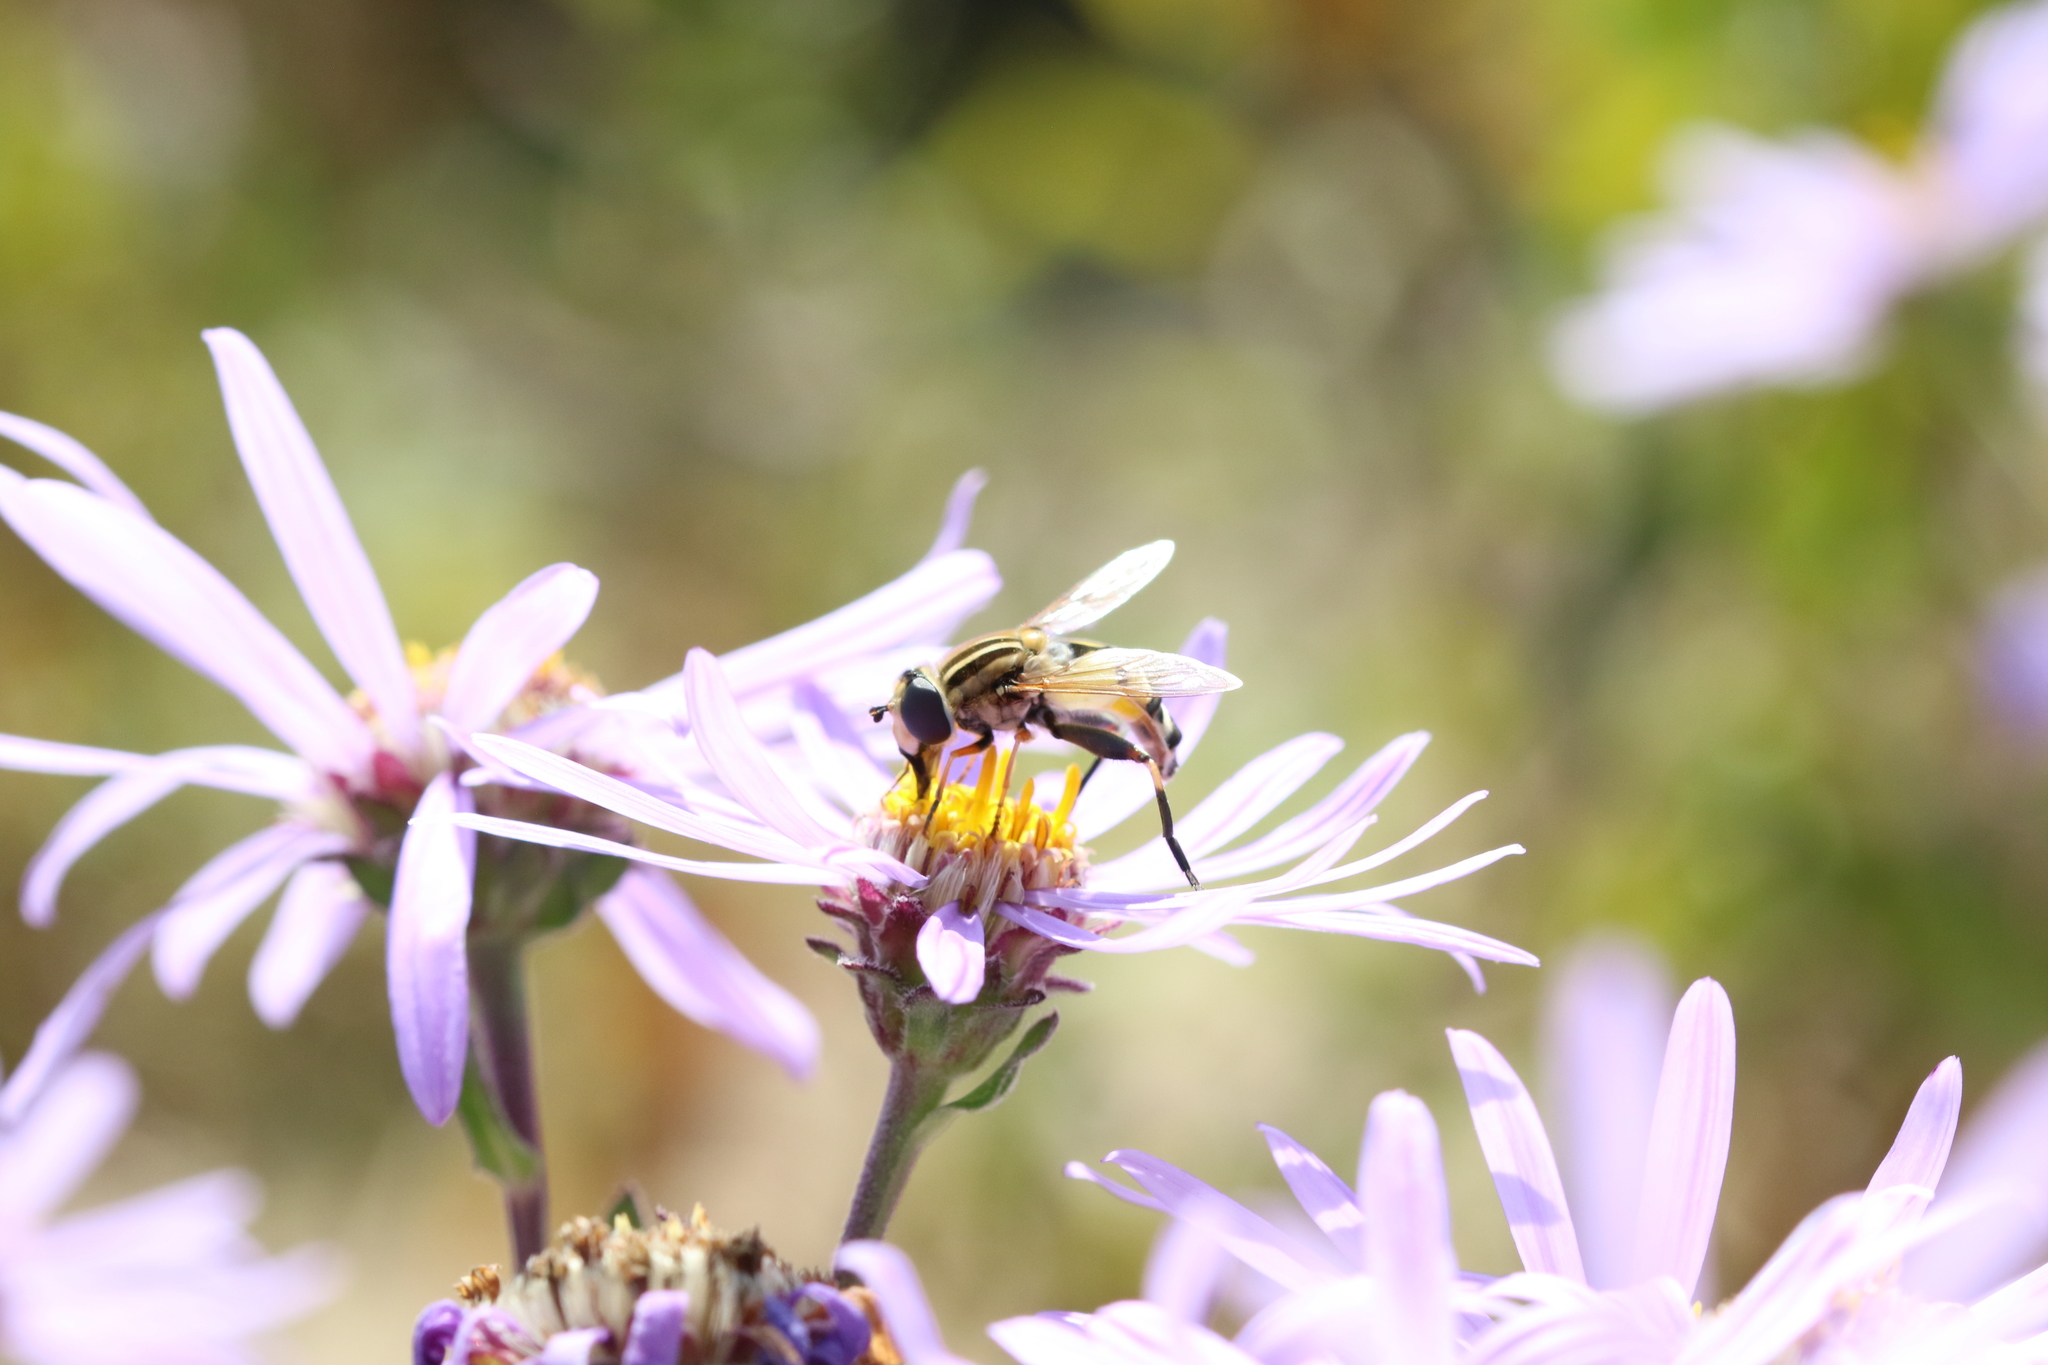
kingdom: Animalia
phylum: Arthropoda
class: Insecta
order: Diptera
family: Syrphidae
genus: Helophilus
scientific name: Helophilus trivittatus
